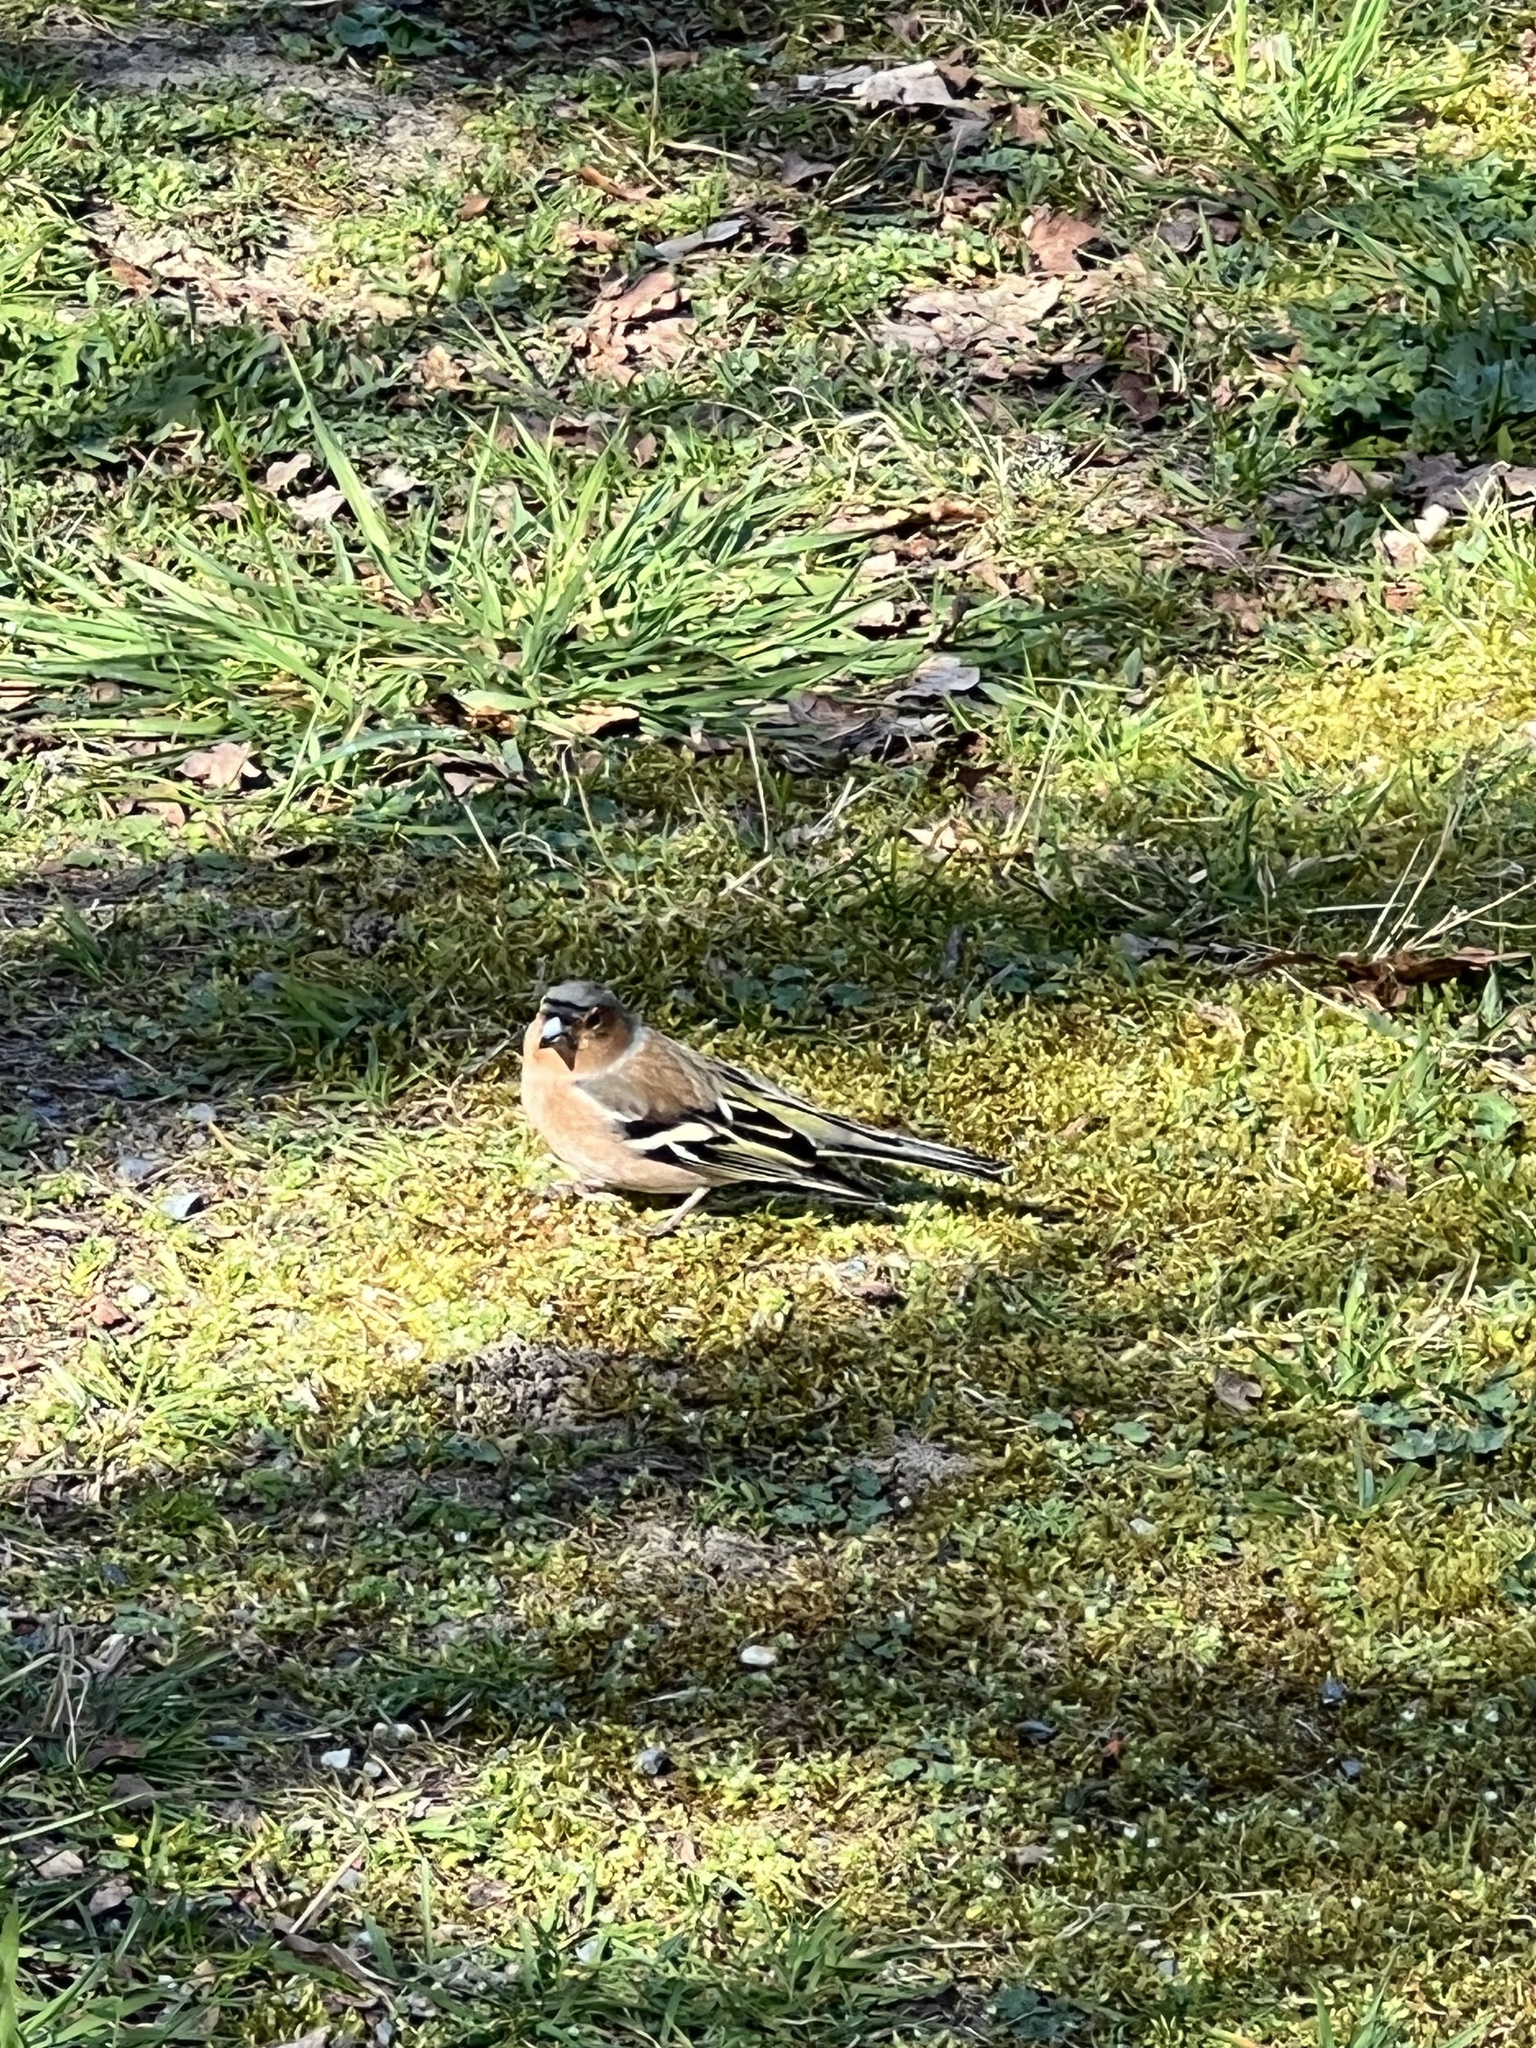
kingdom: Animalia
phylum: Chordata
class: Aves
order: Passeriformes
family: Fringillidae
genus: Fringilla
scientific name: Fringilla coelebs
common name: Common chaffinch
